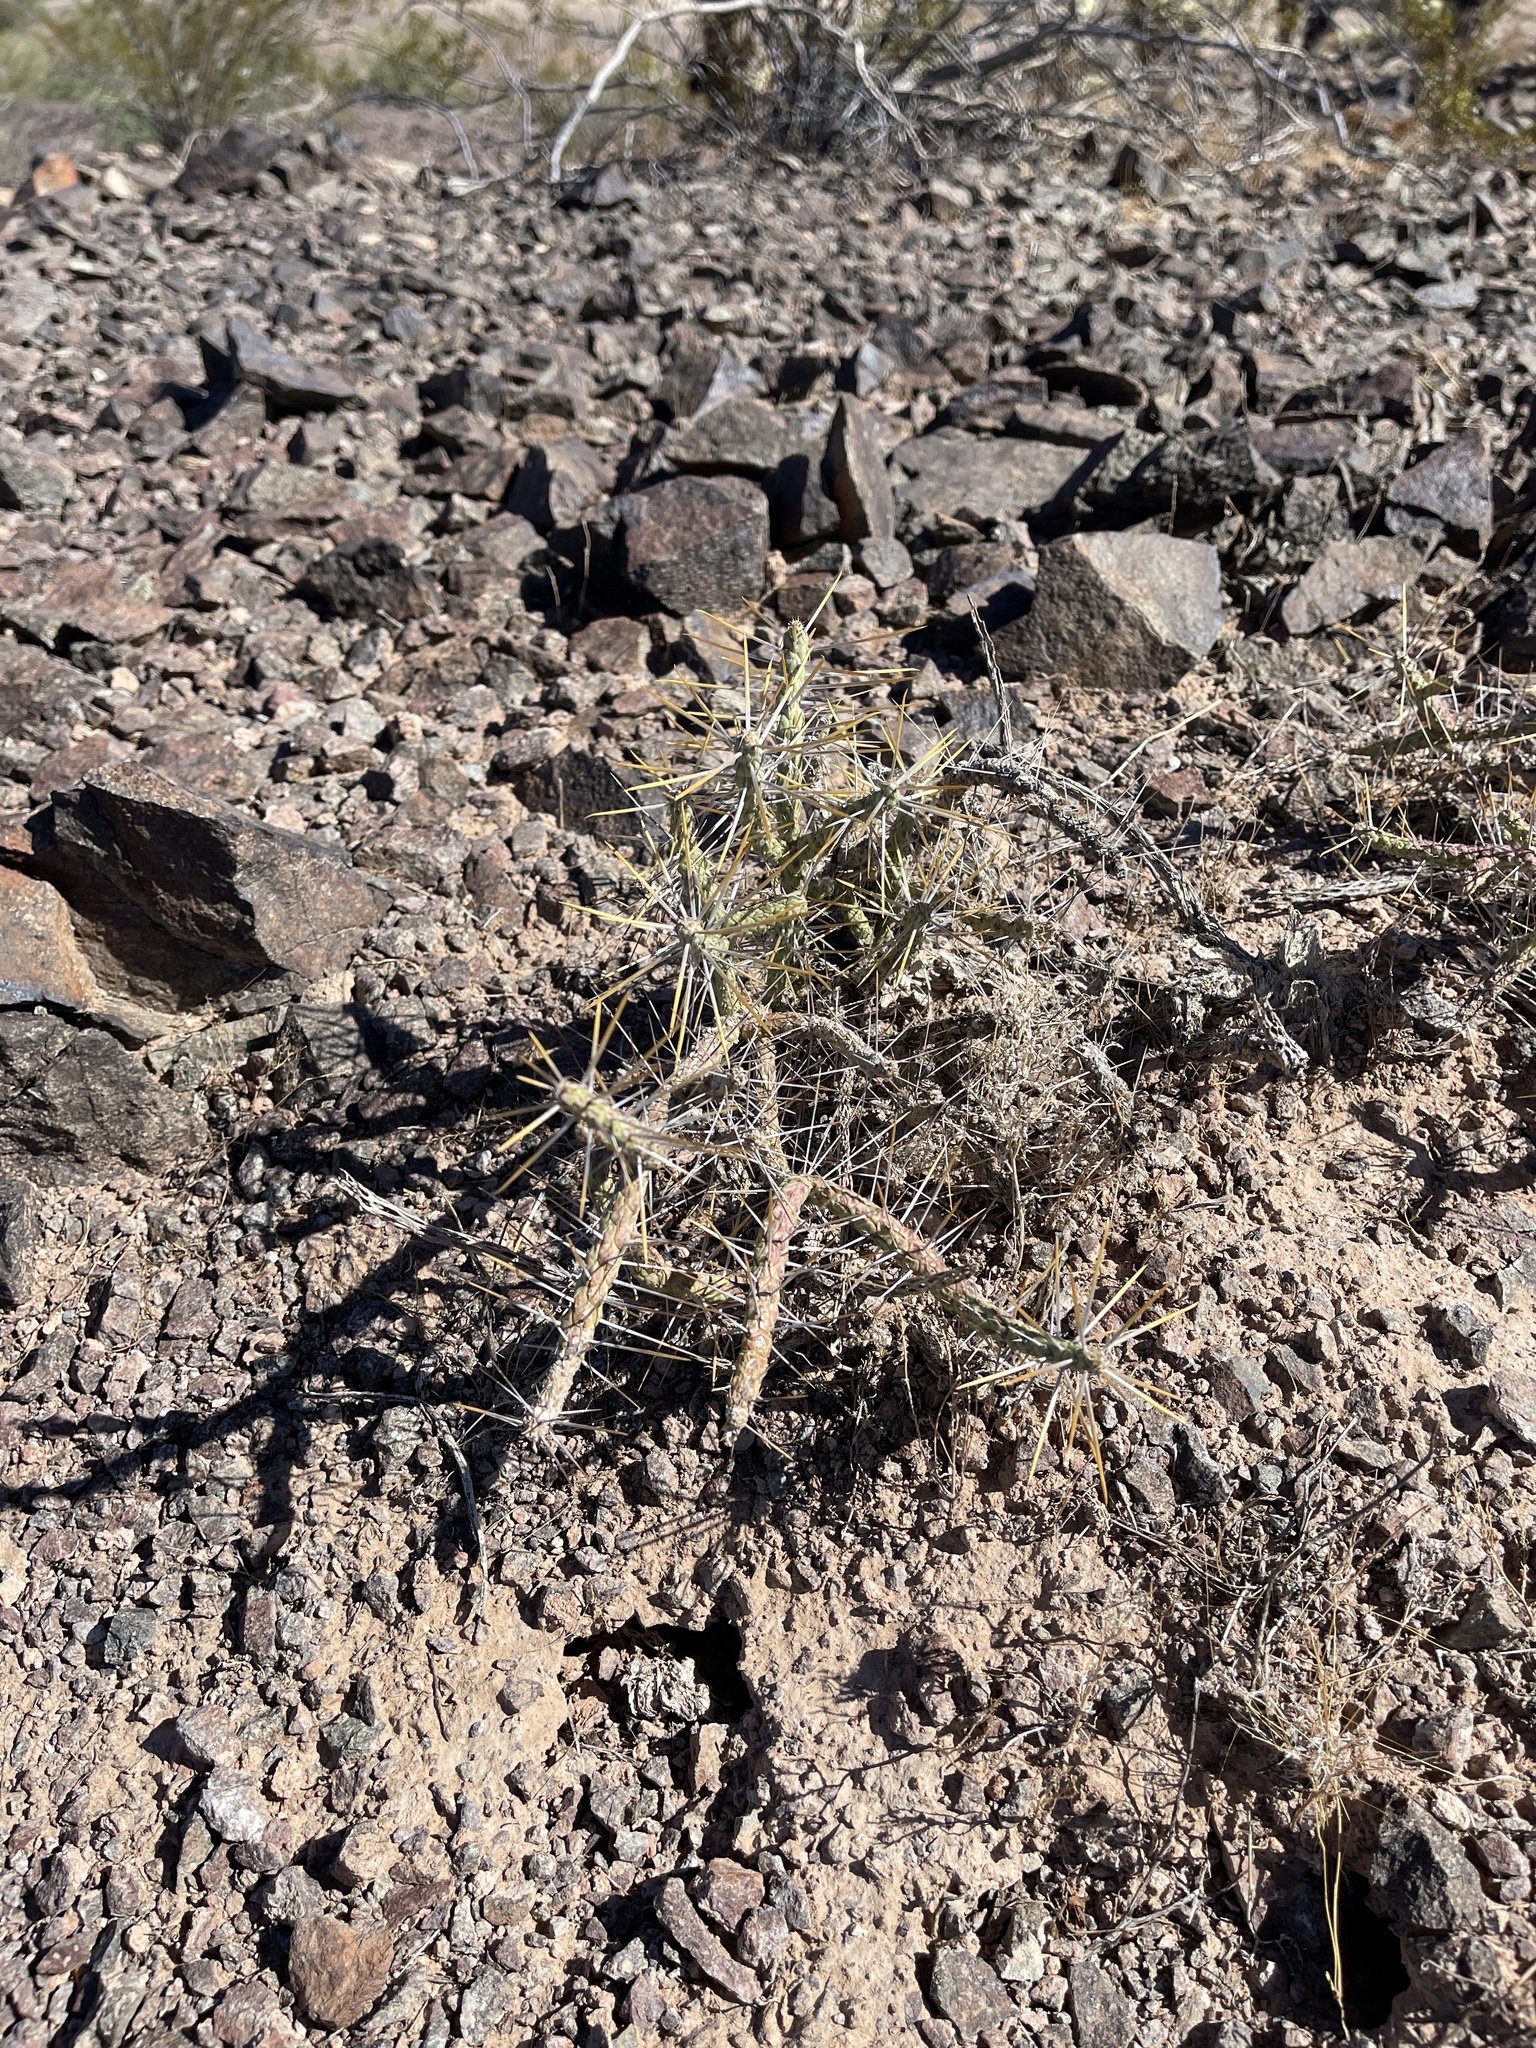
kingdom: Plantae
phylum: Tracheophyta
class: Magnoliopsida
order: Caryophyllales
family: Cactaceae
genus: Cylindropuntia
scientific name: Cylindropuntia ramosissima
